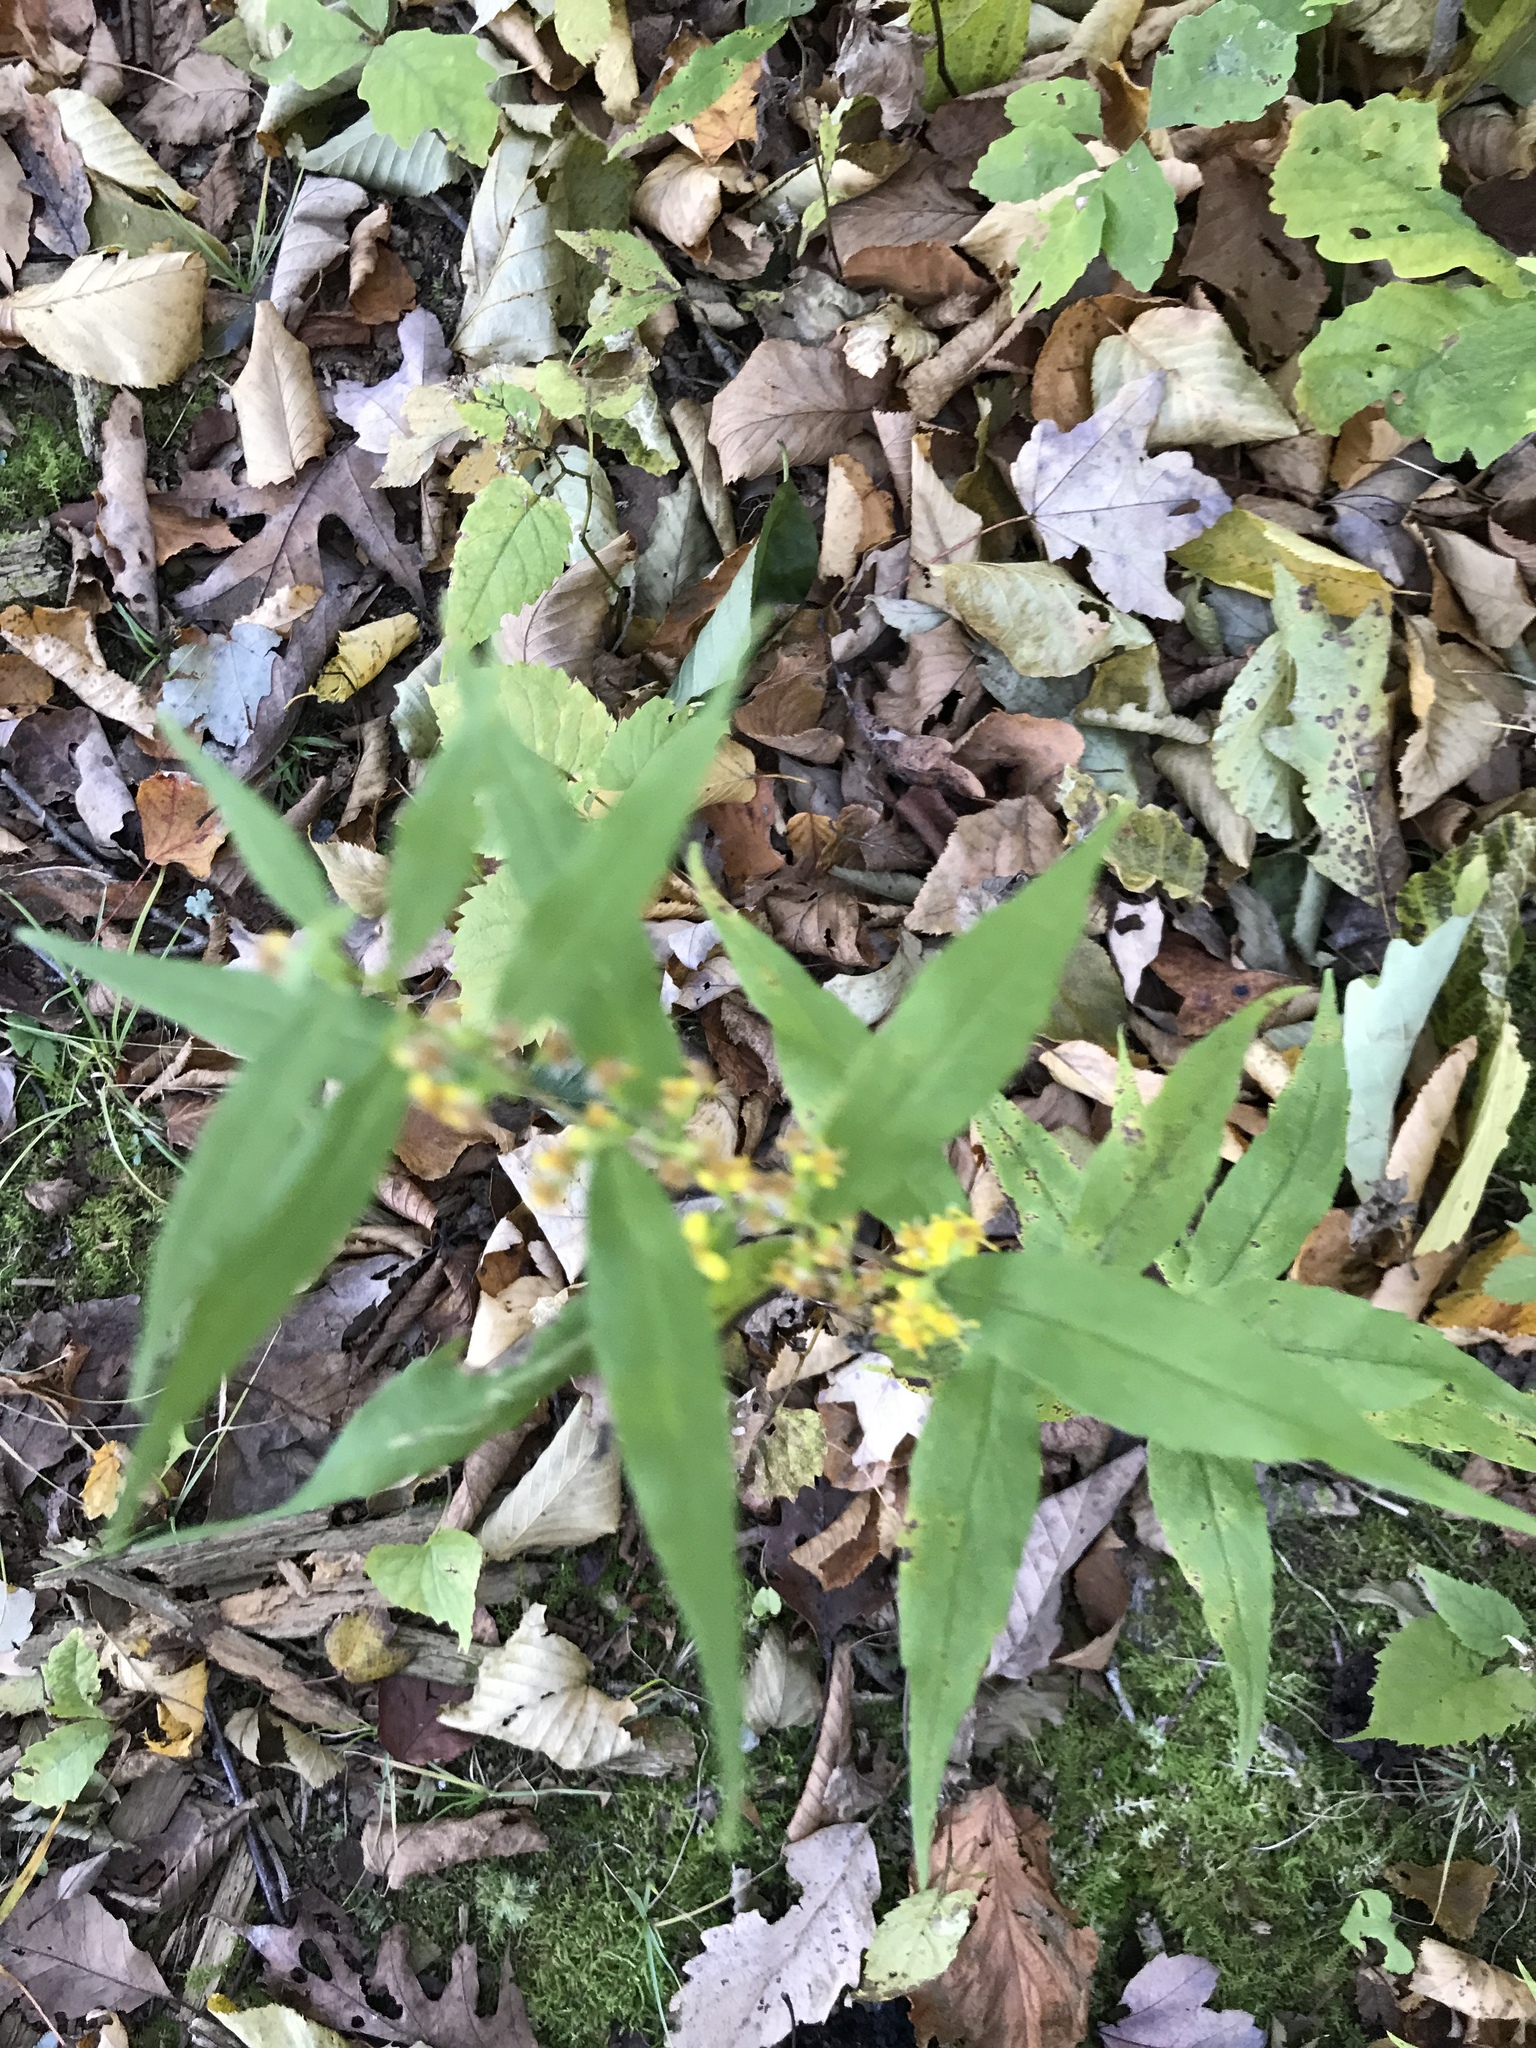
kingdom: Plantae
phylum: Tracheophyta
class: Magnoliopsida
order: Asterales
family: Asteraceae
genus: Solidago
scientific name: Solidago caesia
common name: Woodland goldenrod
